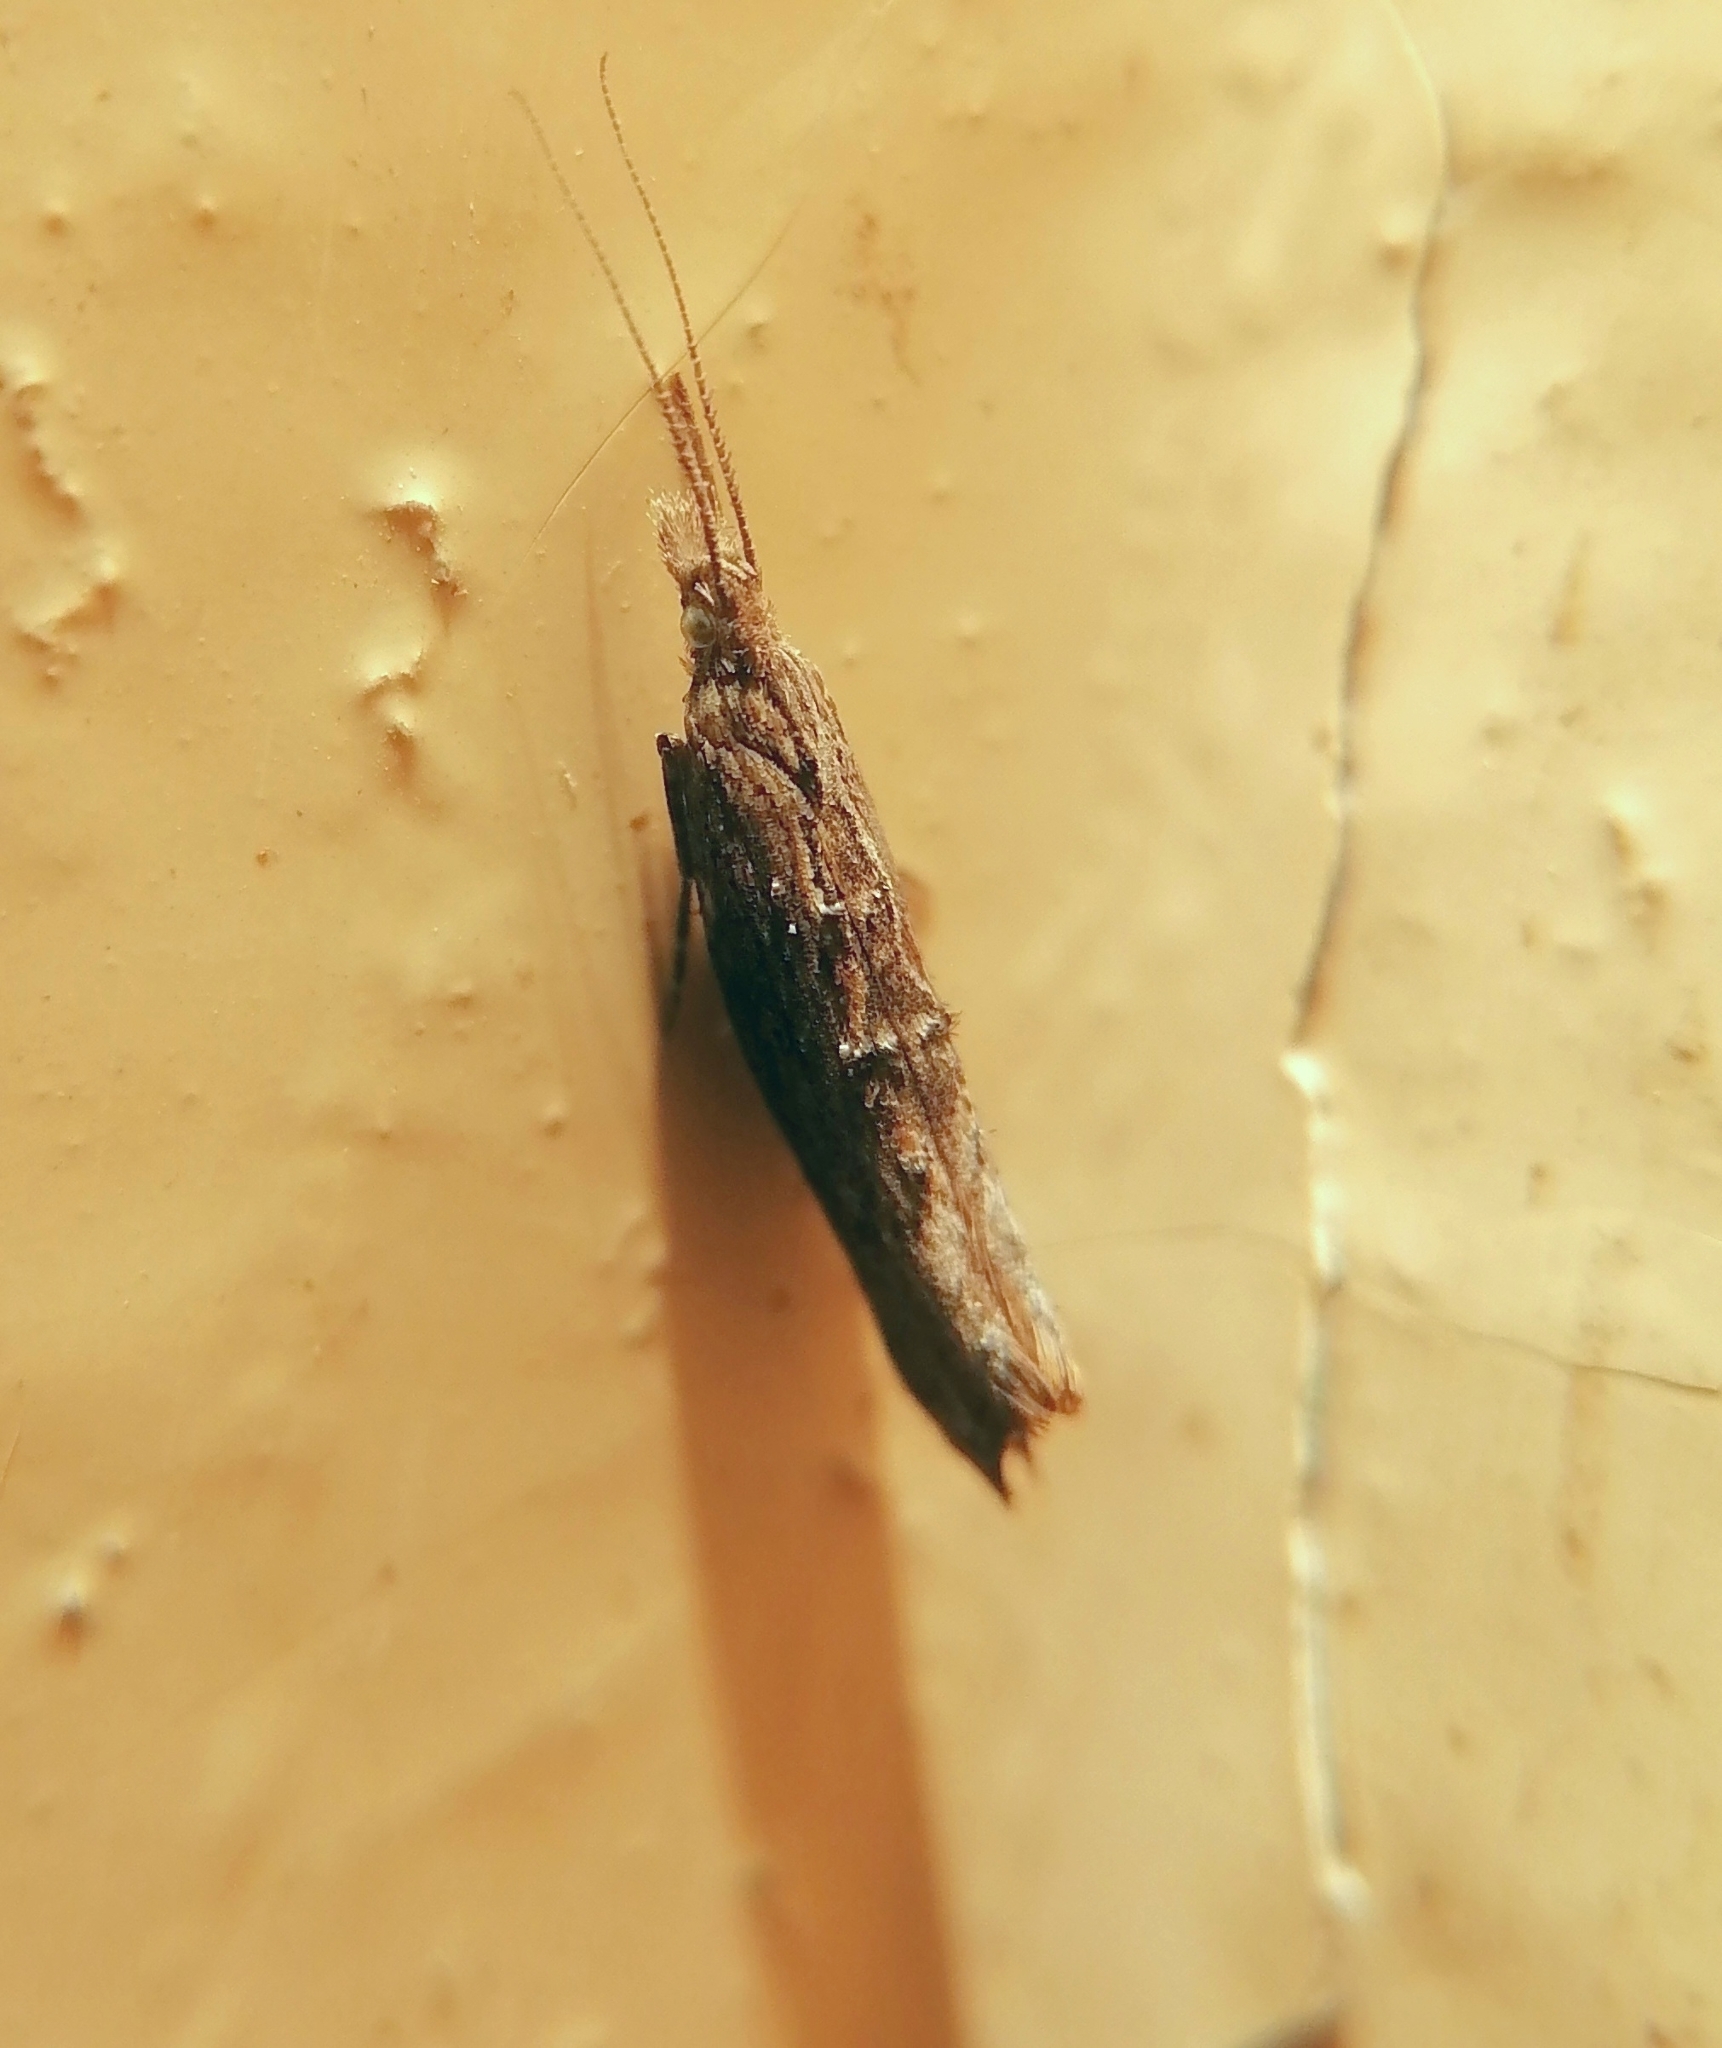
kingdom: Animalia
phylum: Arthropoda
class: Insecta
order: Lepidoptera
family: Ypsolophidae
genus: Ypsolopha
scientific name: Ypsolopha horridella
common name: Dark smudge
